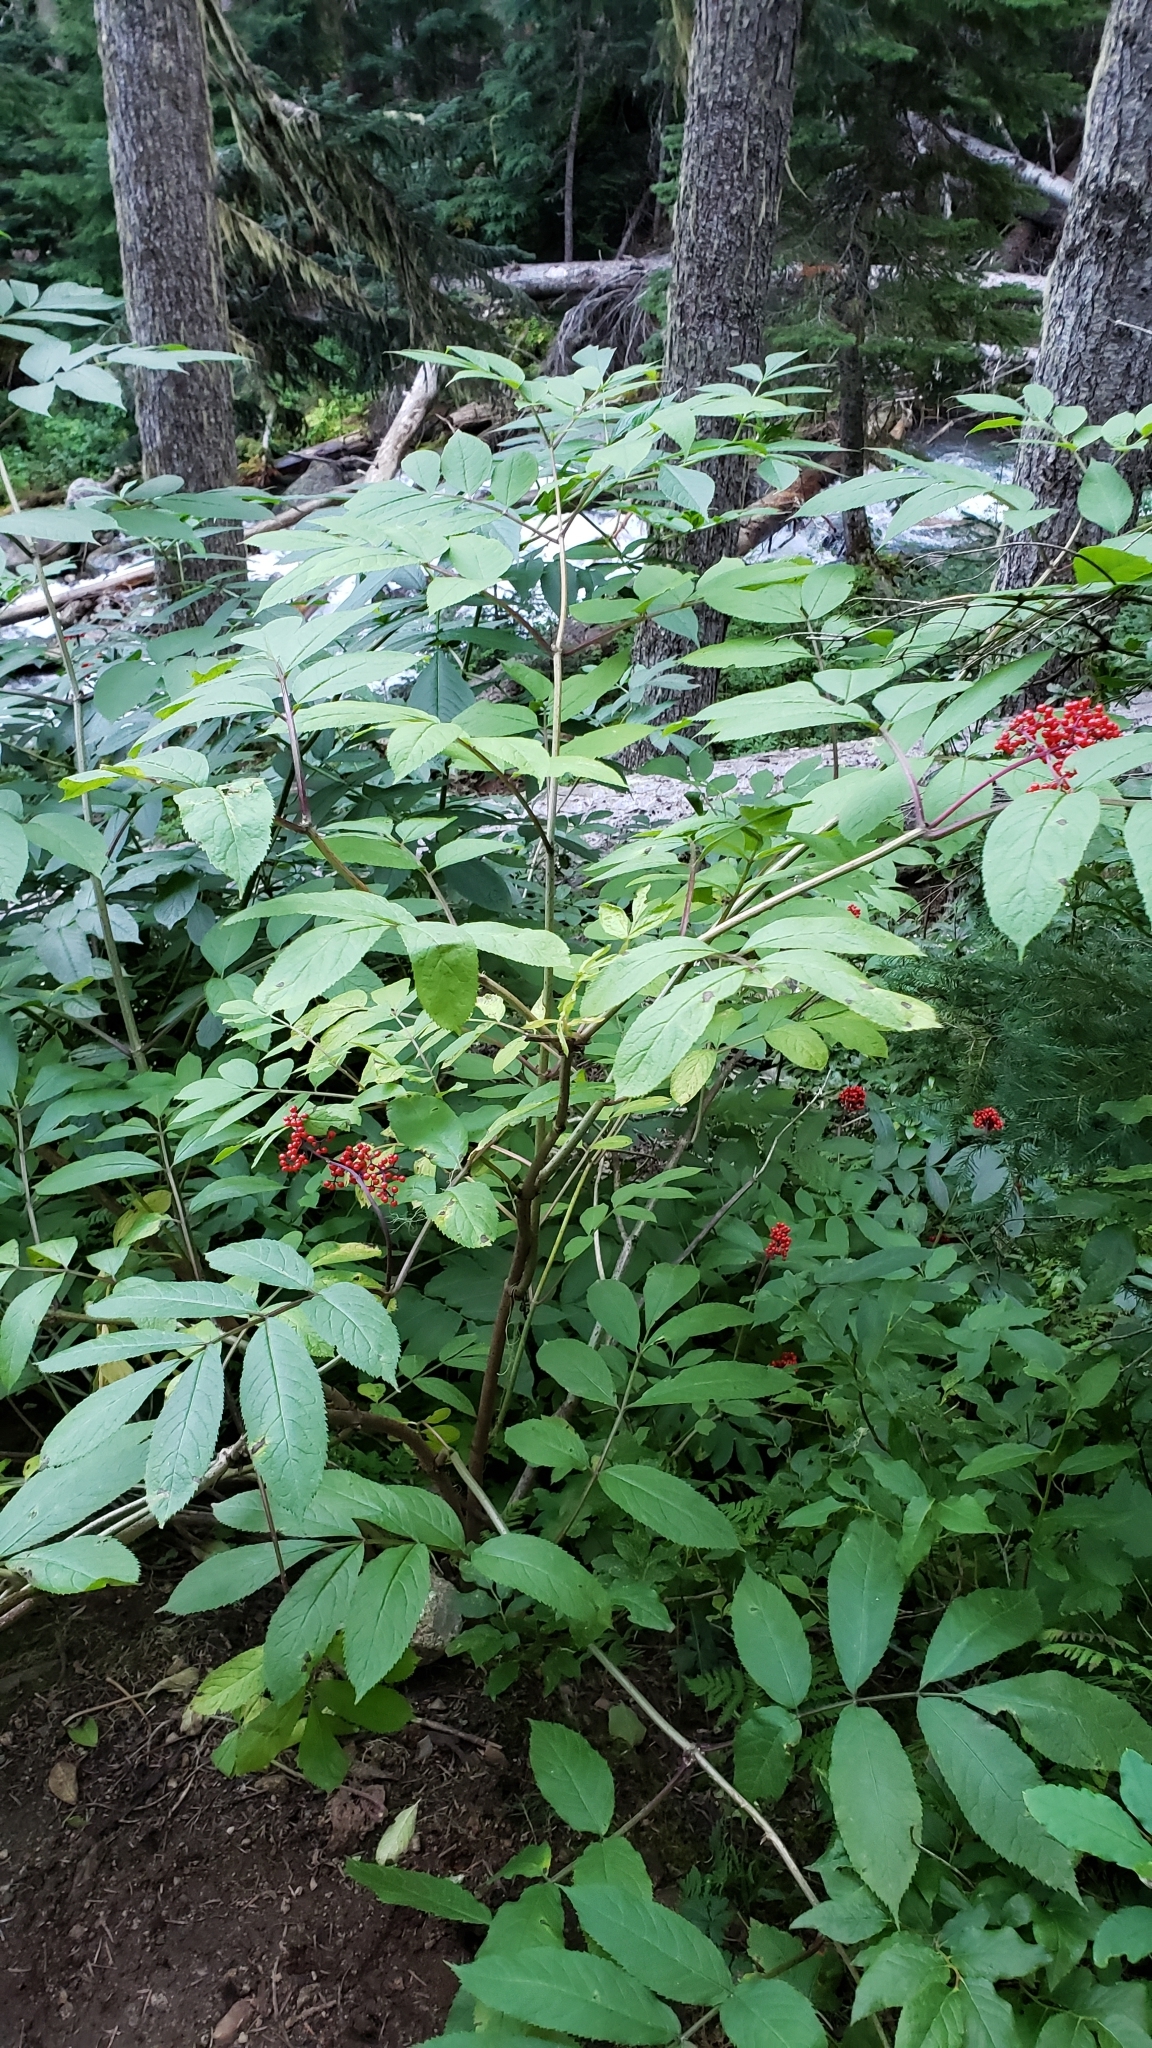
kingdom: Plantae
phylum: Tracheophyta
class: Magnoliopsida
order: Dipsacales
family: Viburnaceae
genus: Sambucus
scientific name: Sambucus racemosa
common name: Red-berried elder
